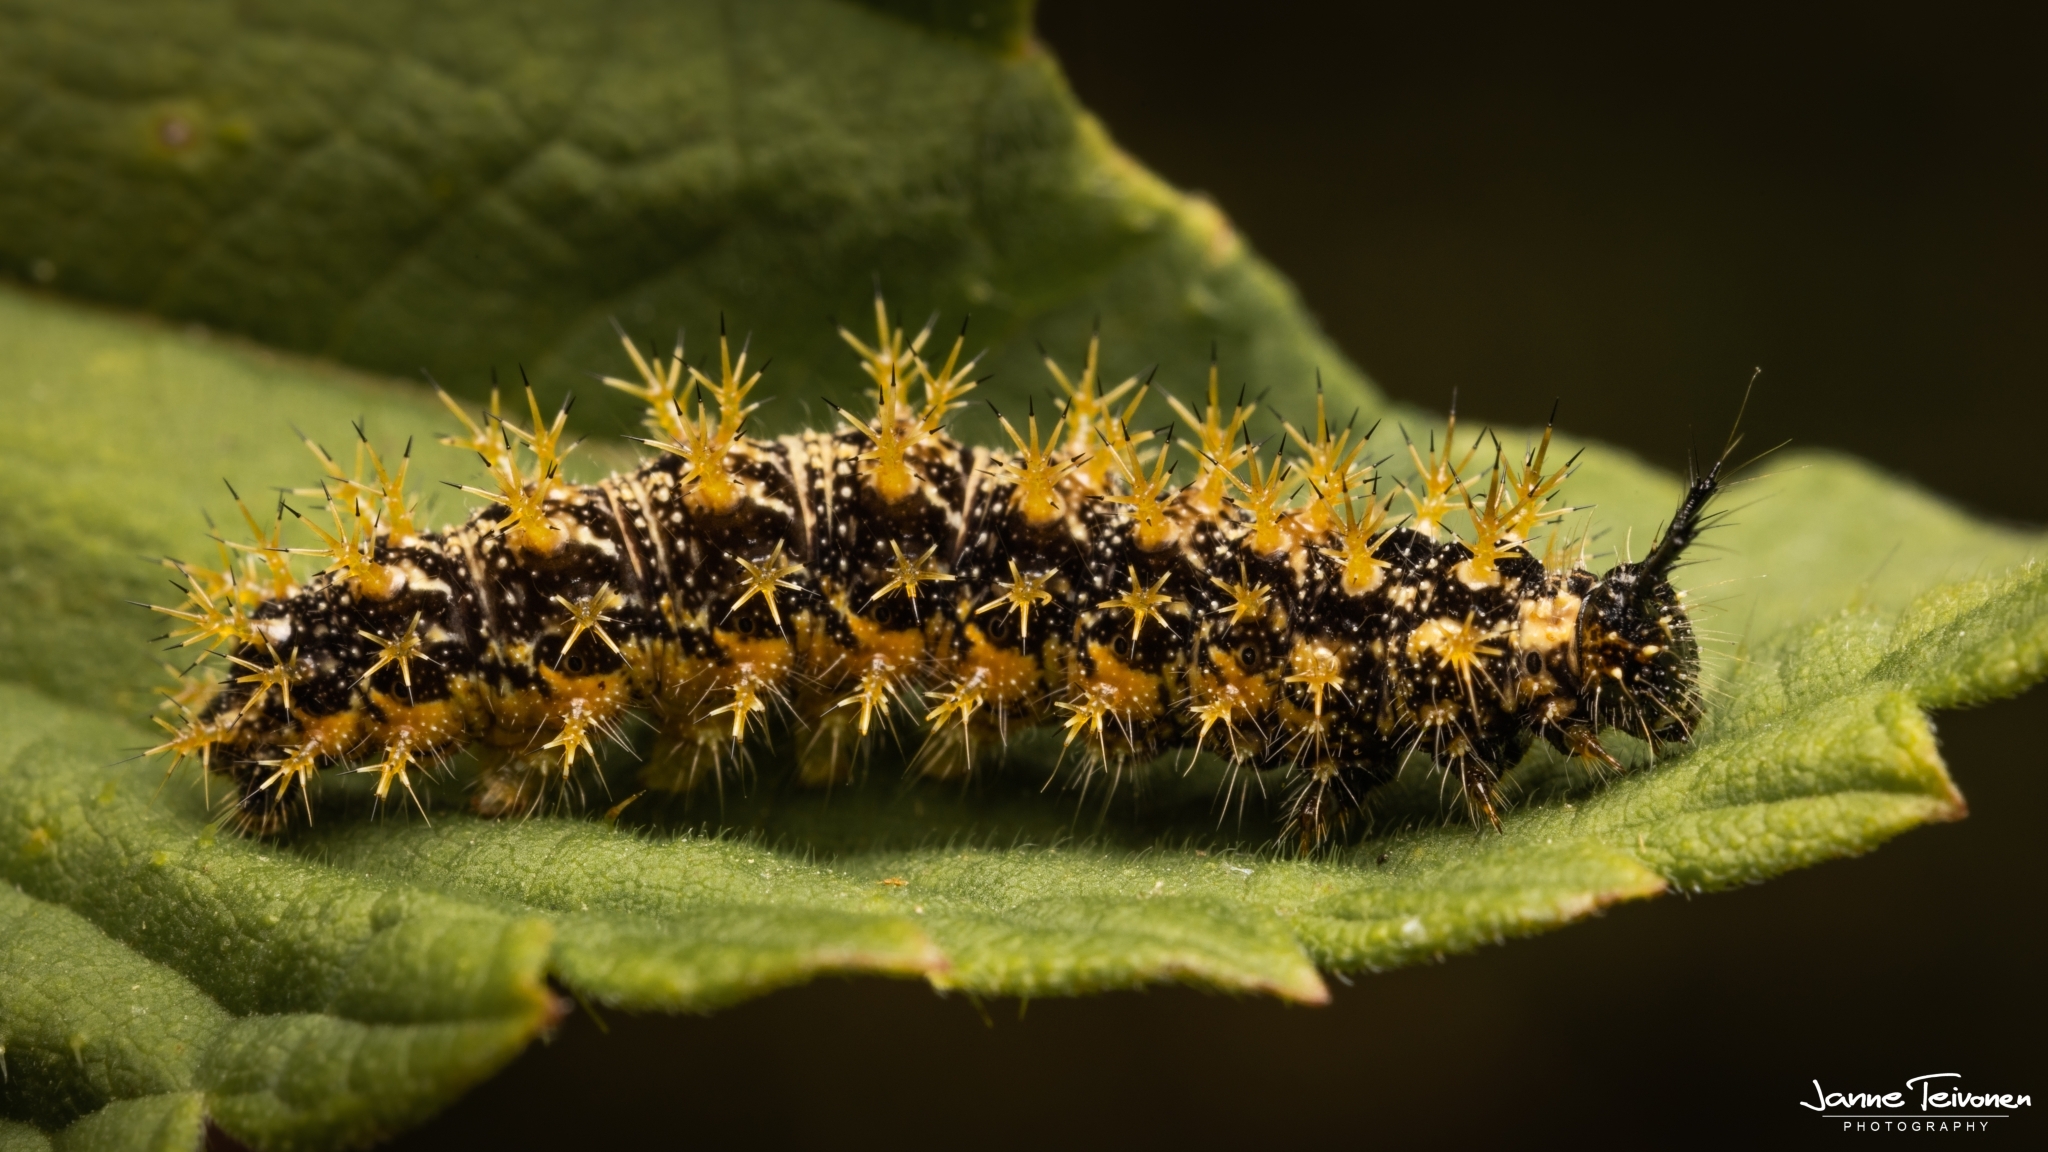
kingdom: Animalia
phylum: Arthropoda
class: Insecta
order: Lepidoptera
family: Nymphalidae
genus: Araschnia
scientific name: Araschnia levana
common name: Map butterfly
